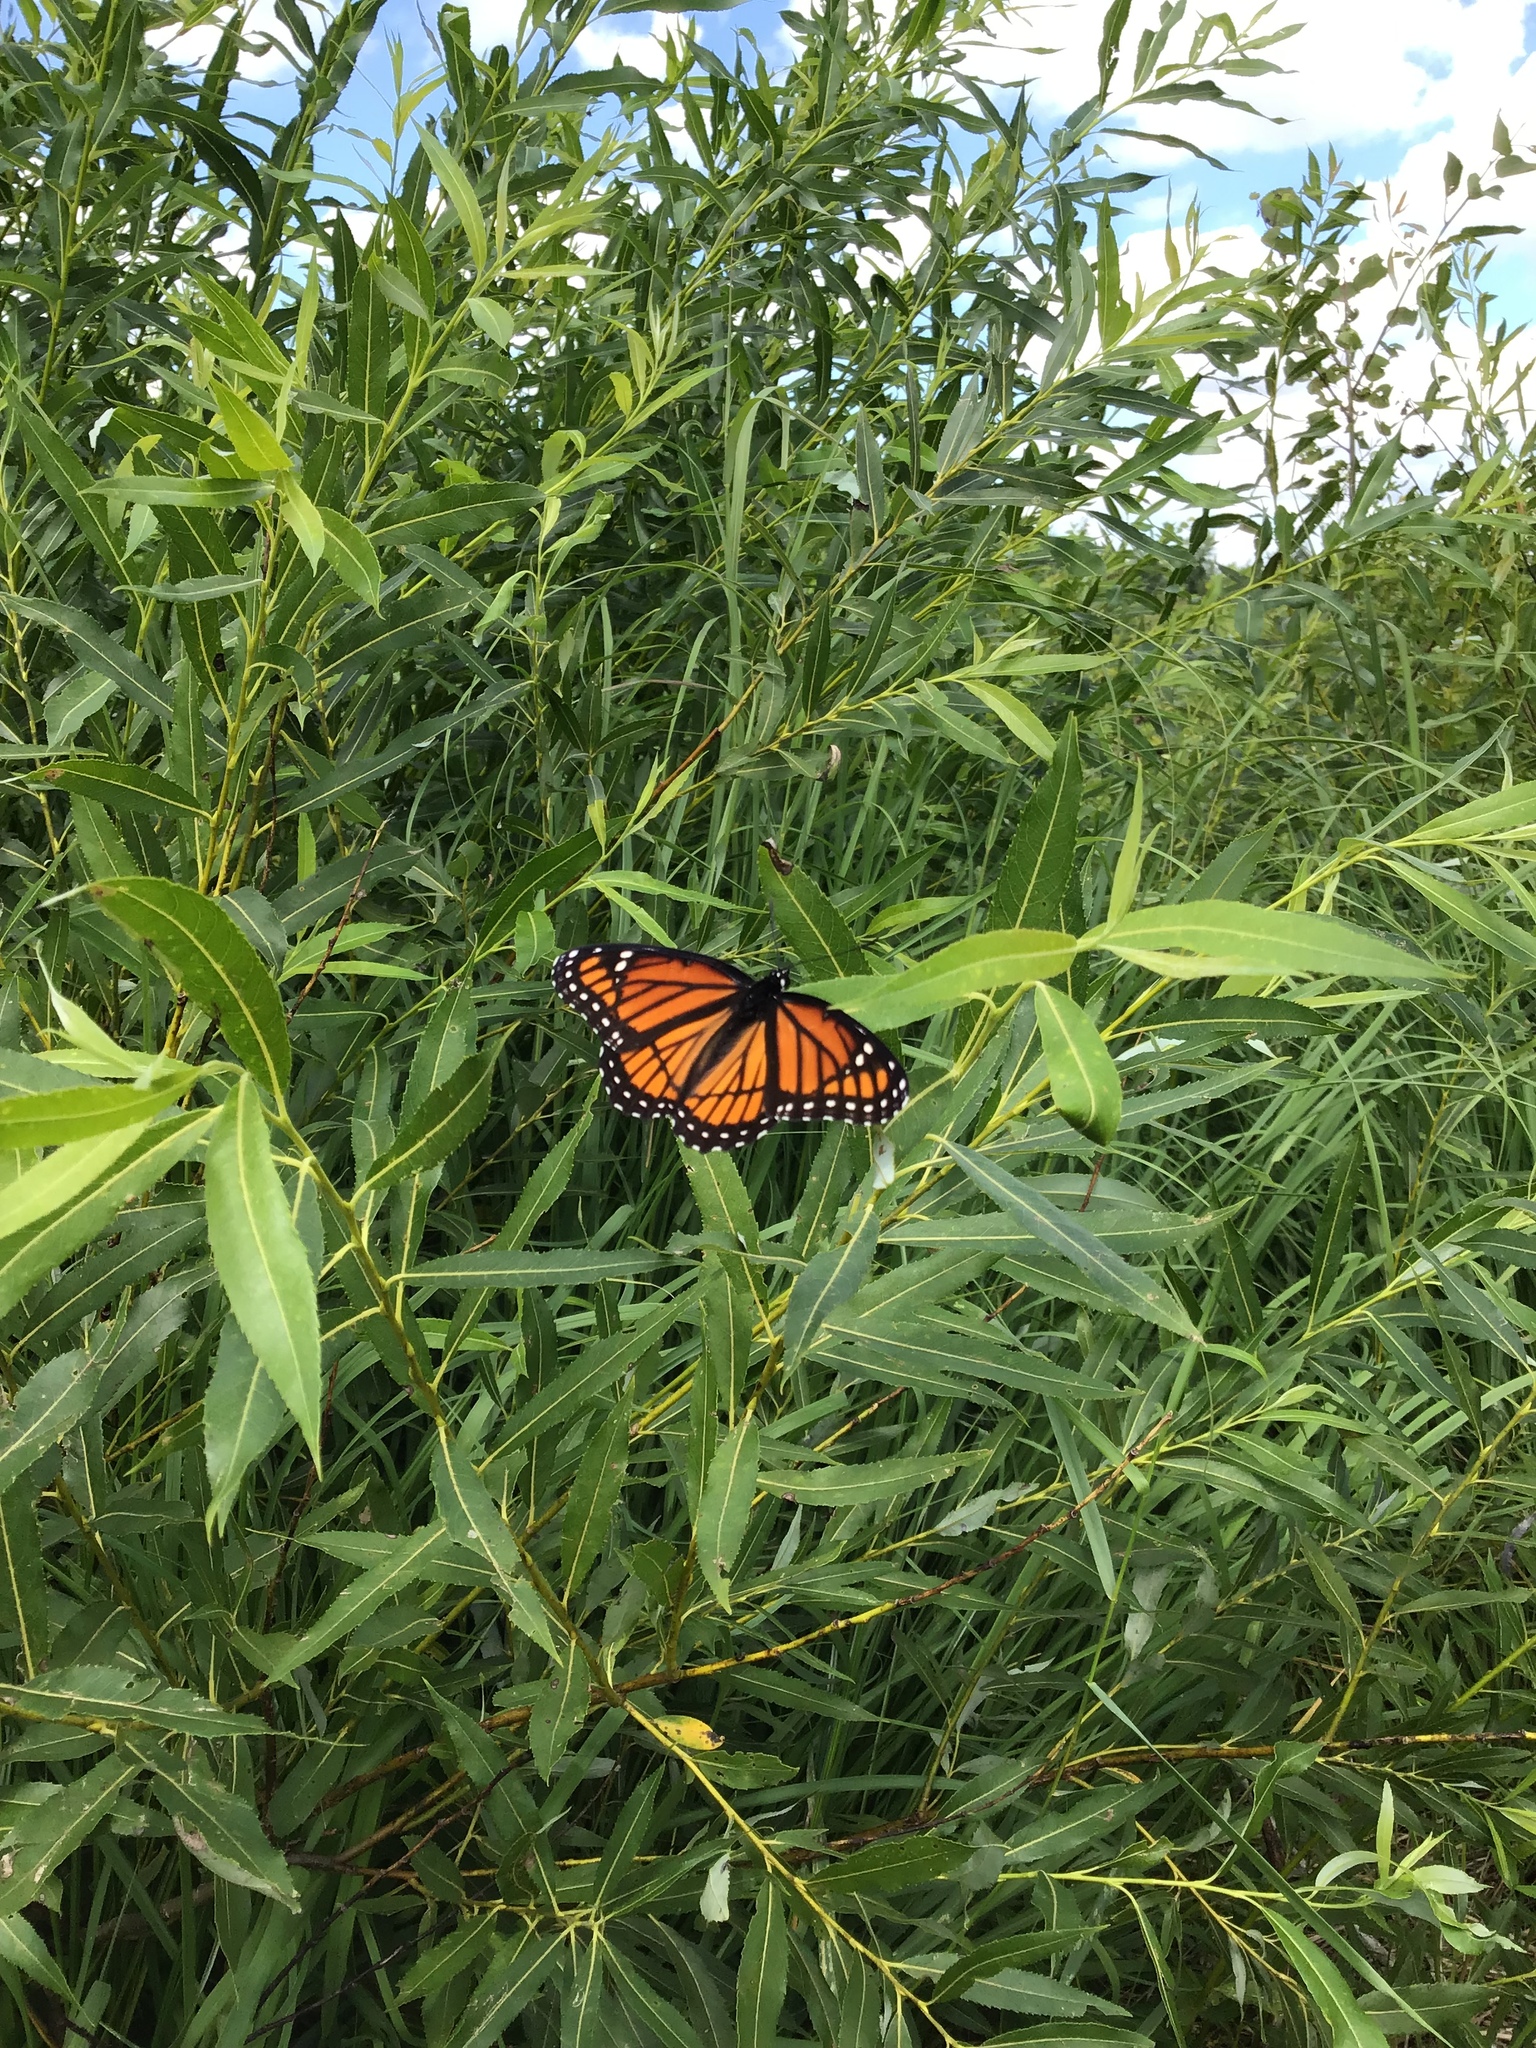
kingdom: Animalia
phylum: Arthropoda
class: Insecta
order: Lepidoptera
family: Nymphalidae
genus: Limenitis
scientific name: Limenitis archippus
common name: Viceroy
